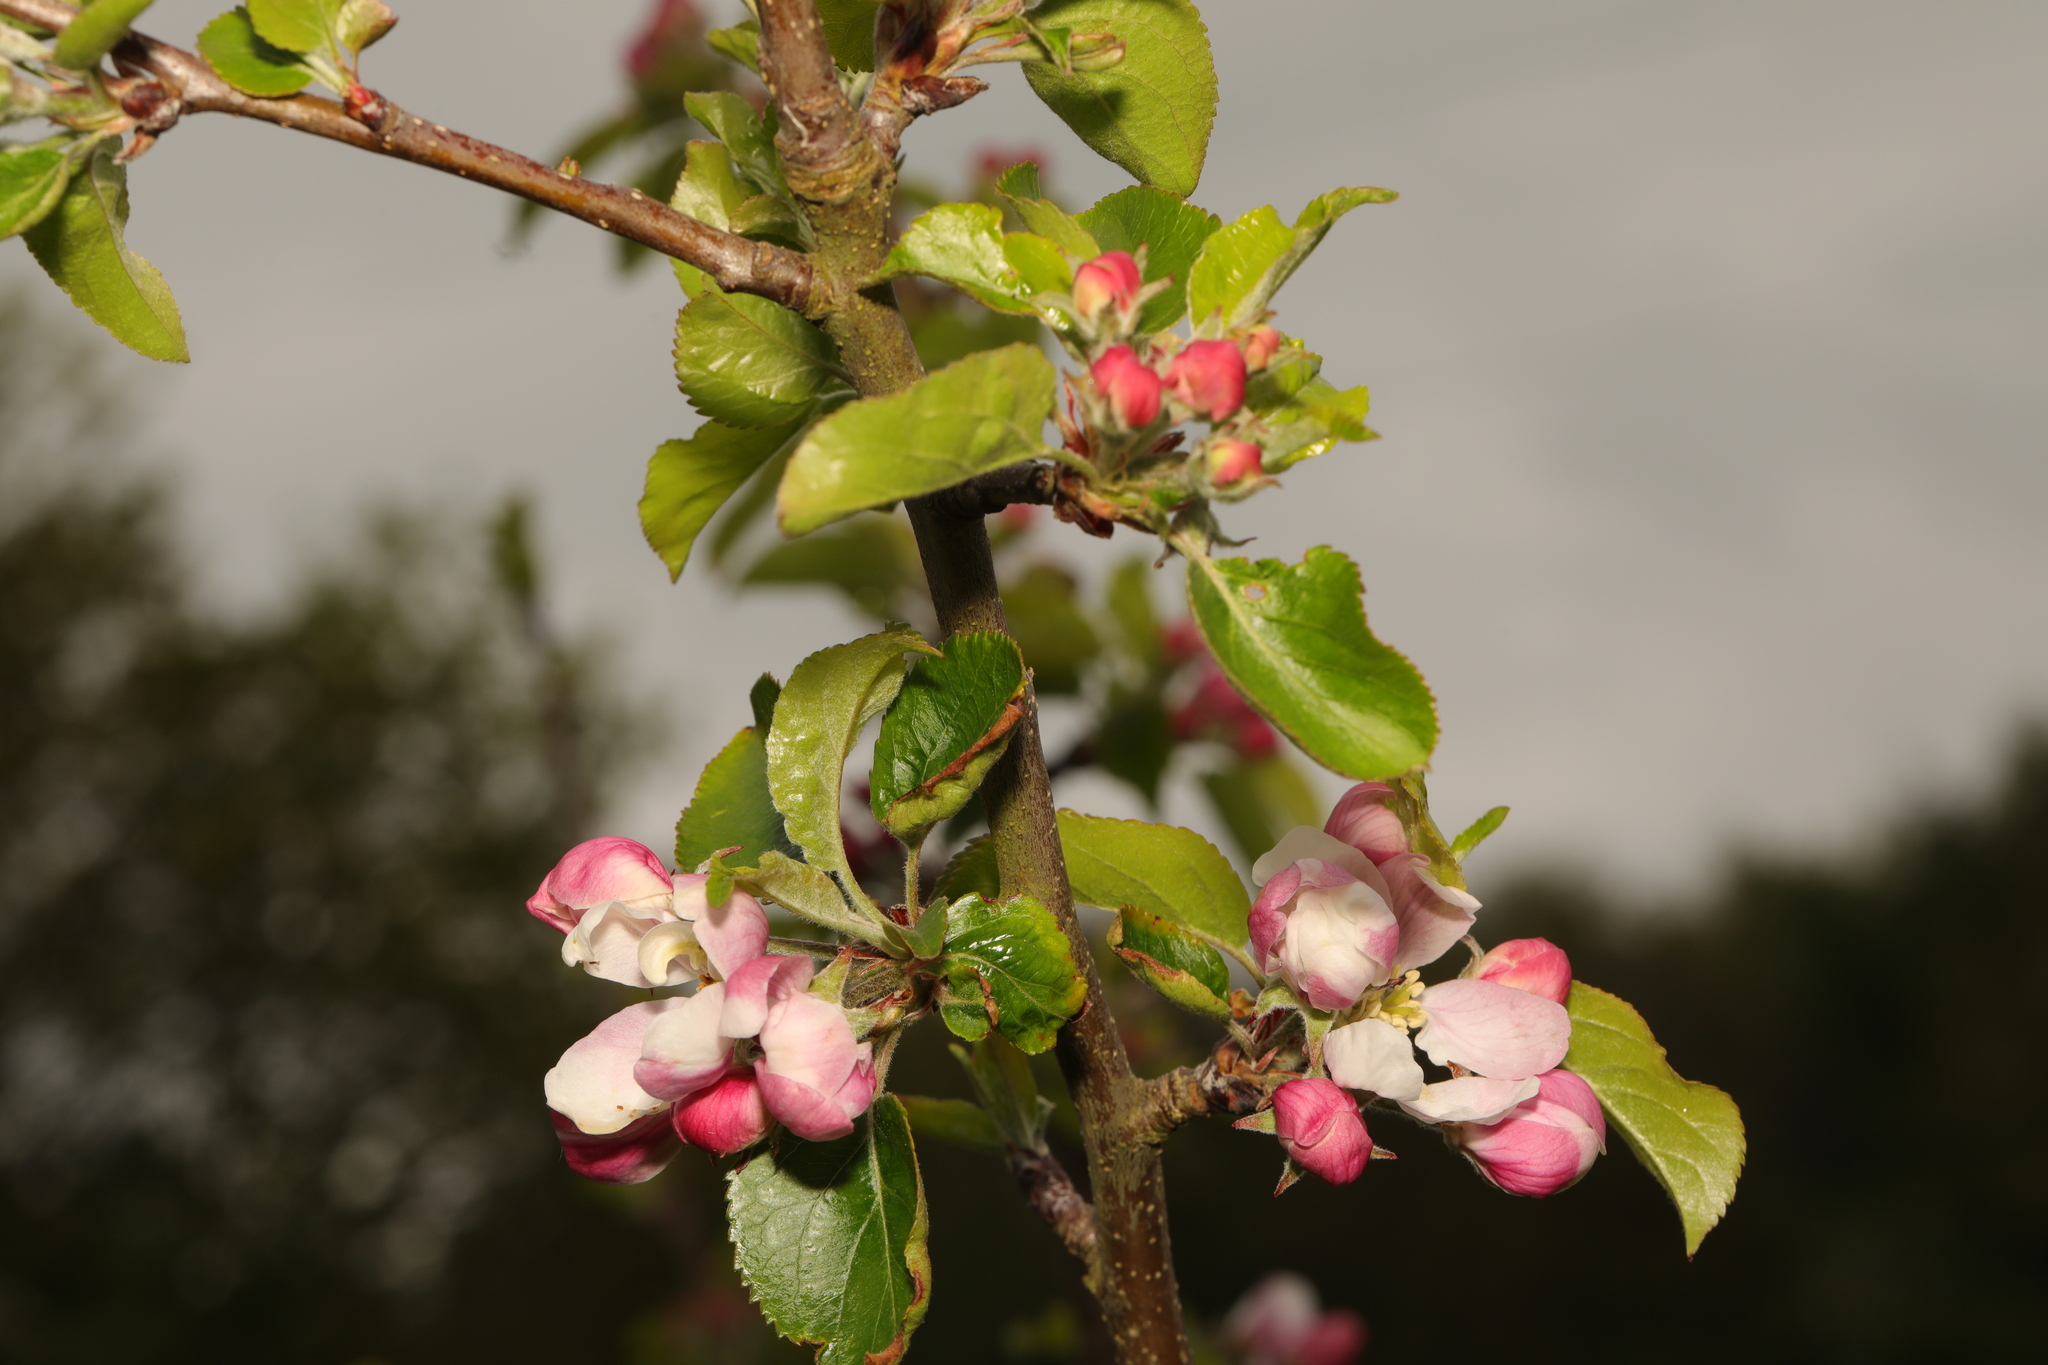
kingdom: Plantae
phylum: Tracheophyta
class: Magnoliopsida
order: Rosales
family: Rosaceae
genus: Malus
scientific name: Malus domestica
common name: Apple
